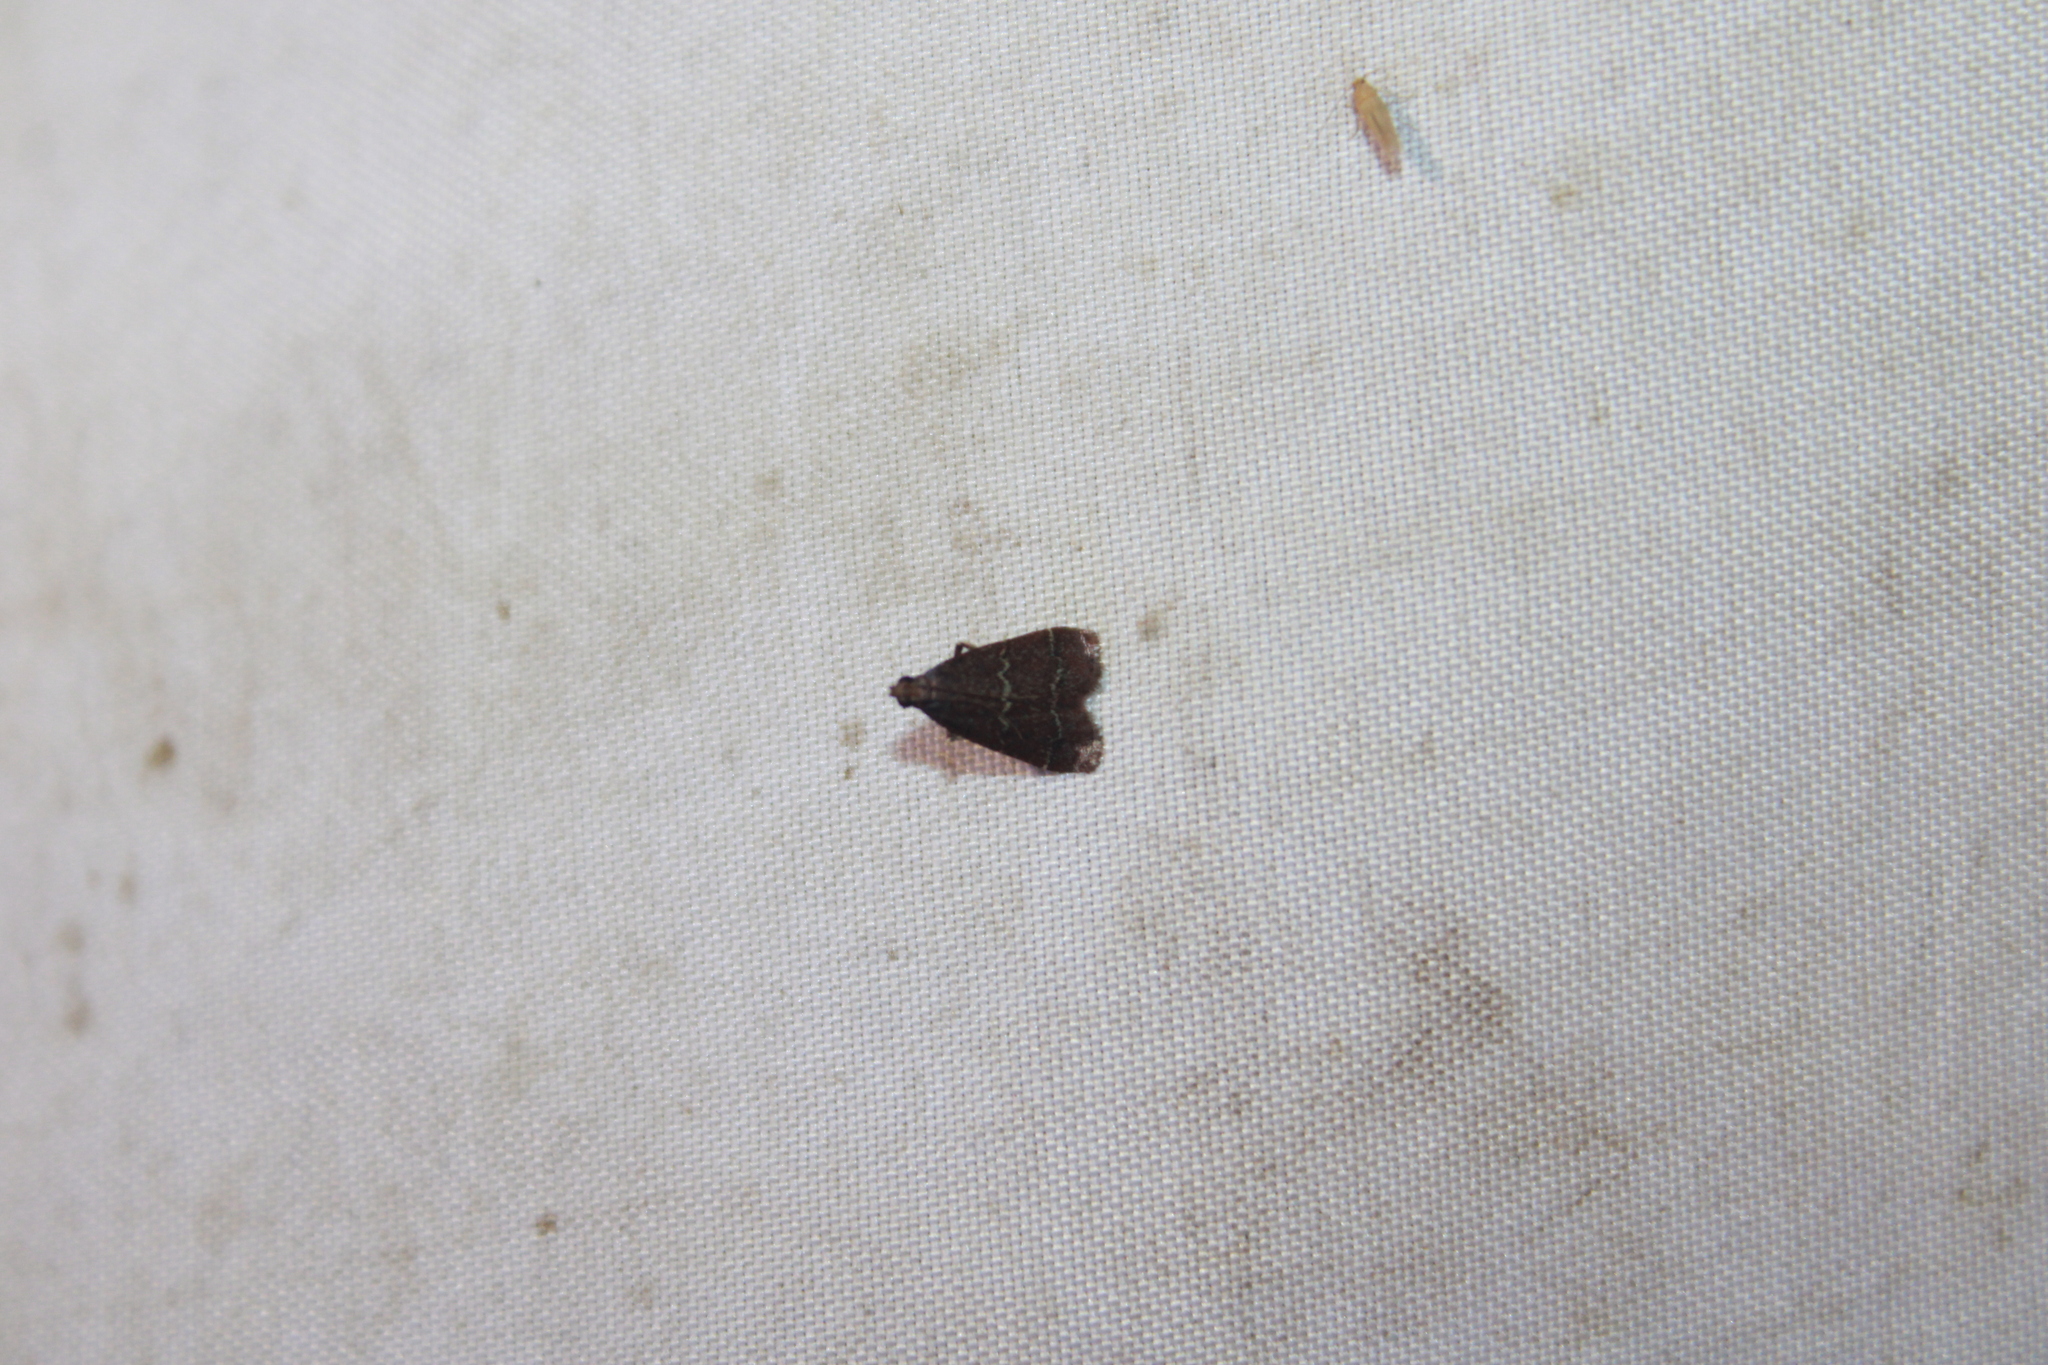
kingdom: Animalia
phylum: Arthropoda
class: Insecta
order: Lepidoptera
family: Pyralidae
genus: Arta
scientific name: Arta
